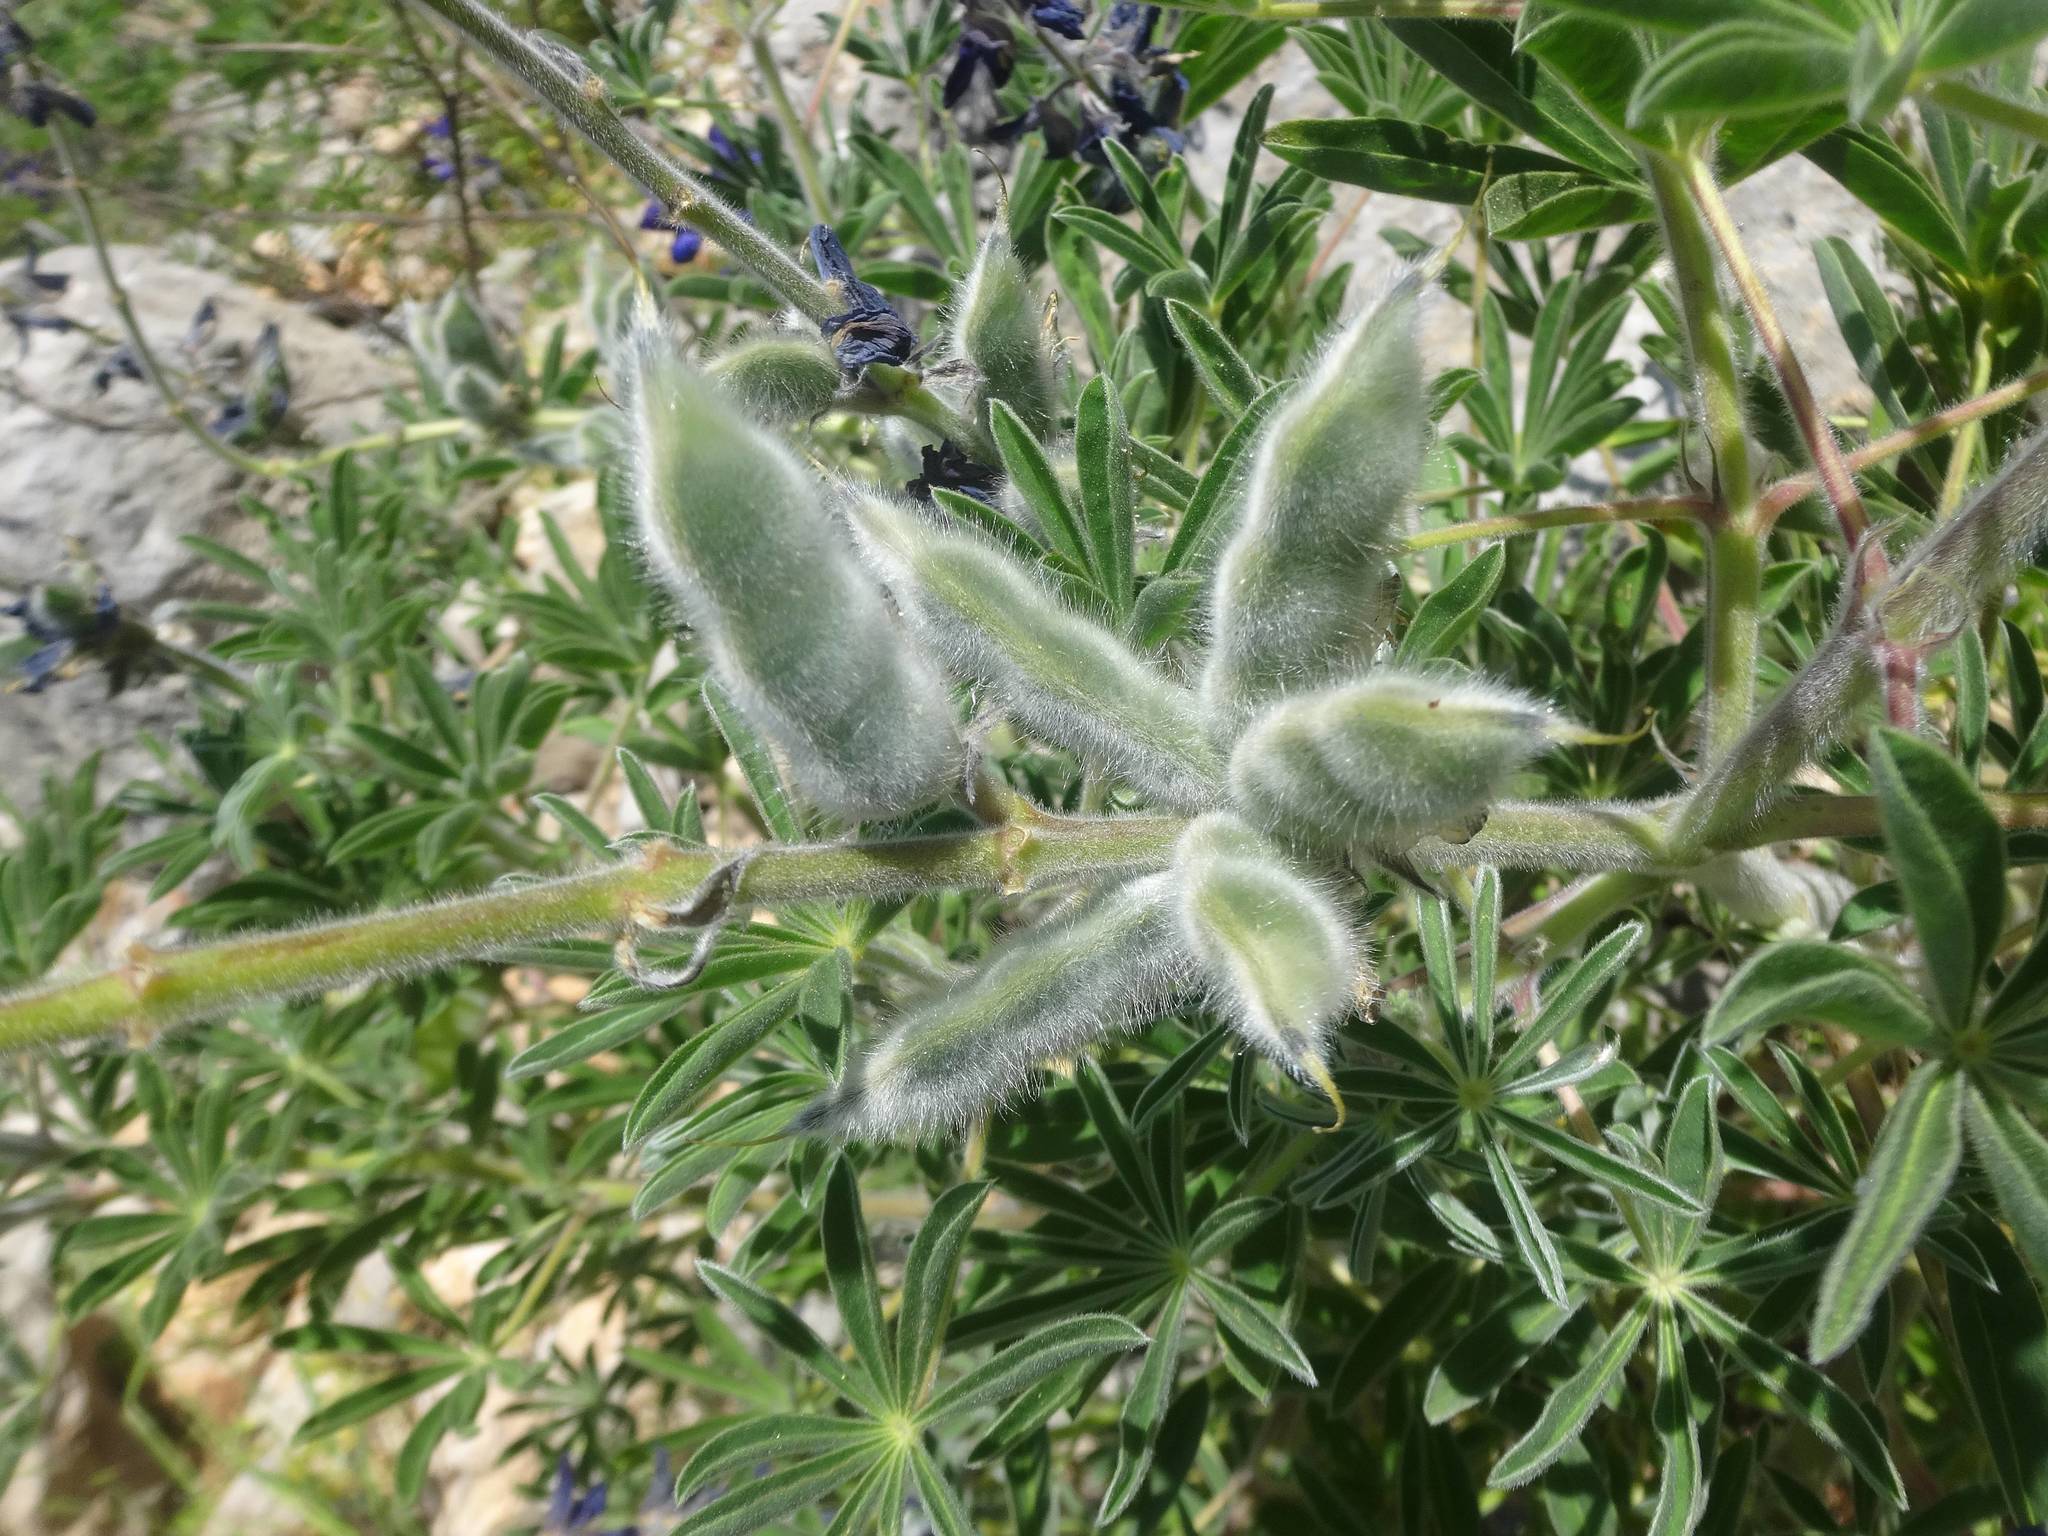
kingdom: Plantae
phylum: Tracheophyta
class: Magnoliopsida
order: Fabales
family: Fabaceae
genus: Lupinus
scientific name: Lupinus pilosus
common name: Blue lupine
